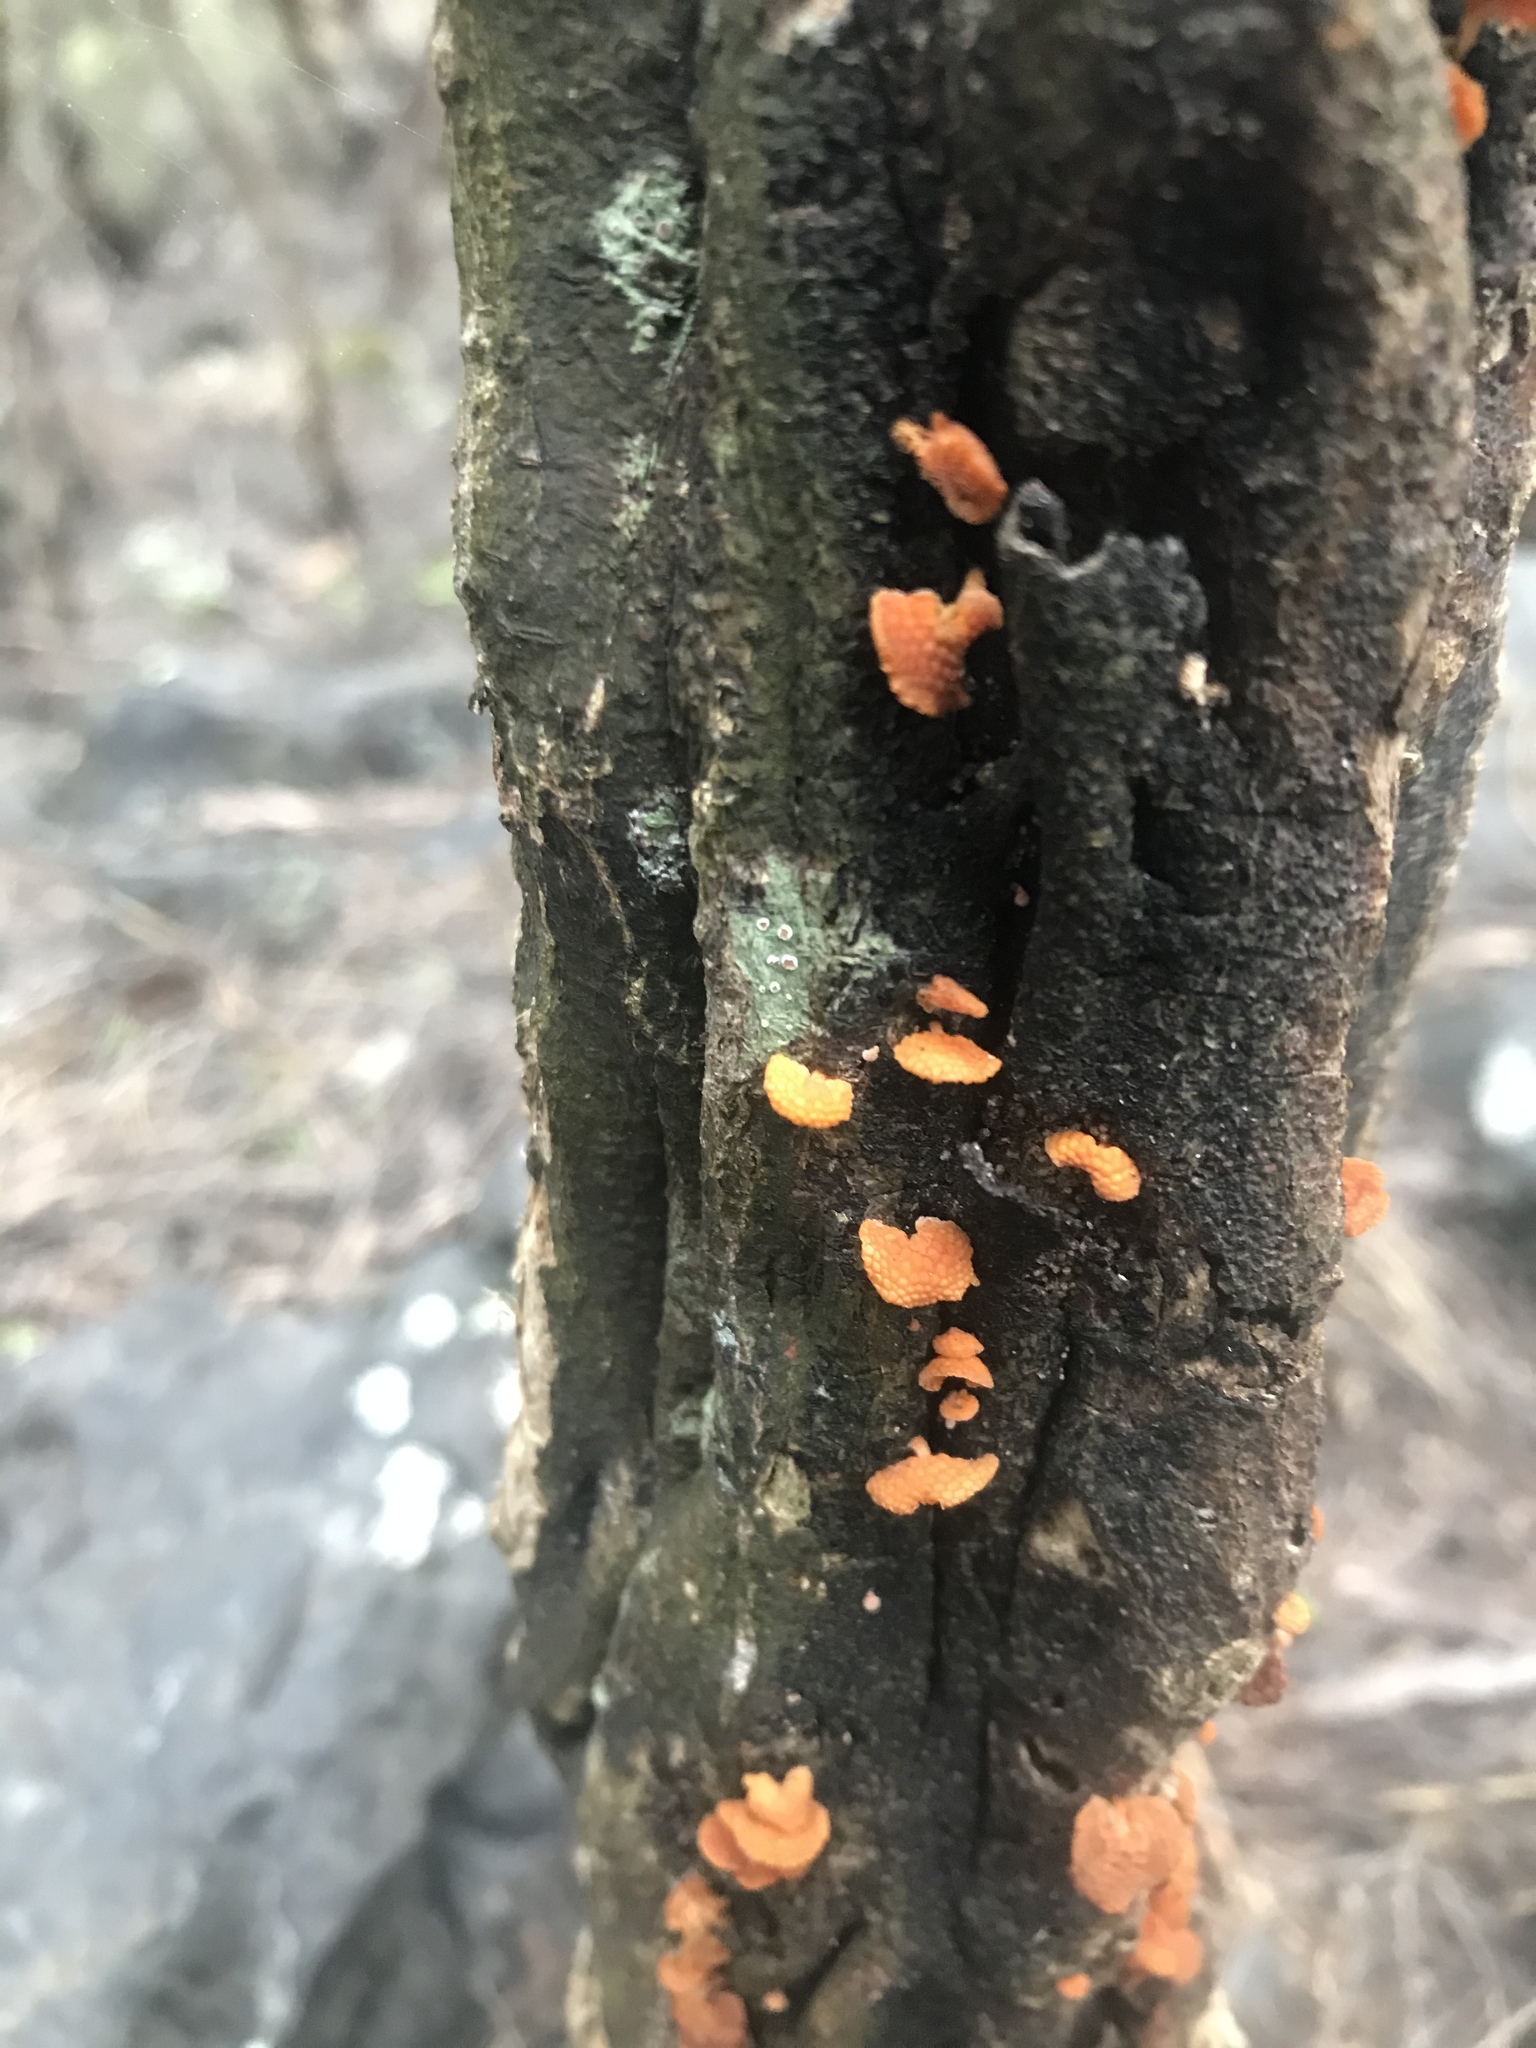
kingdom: Fungi
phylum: Basidiomycota
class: Agaricomycetes
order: Agaricales
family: Mycenaceae
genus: Favolaschia
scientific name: Favolaschia claudopus
